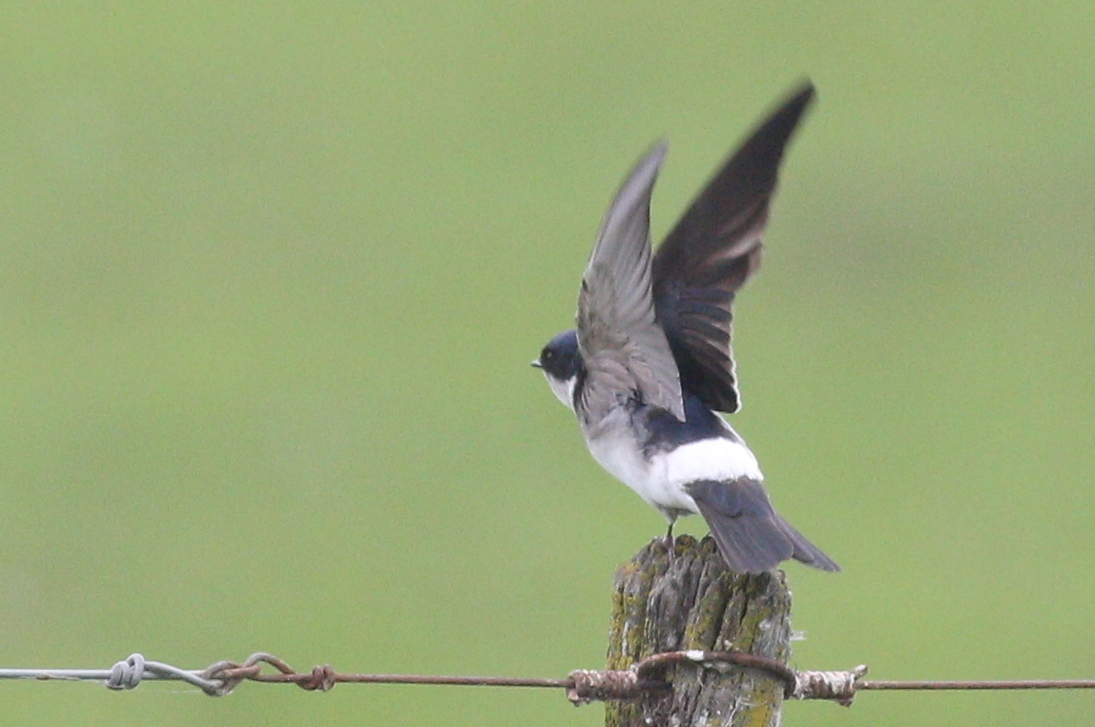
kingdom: Animalia
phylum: Chordata
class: Aves
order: Passeriformes
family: Hirundinidae
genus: Tachycineta
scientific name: Tachycineta leucorrhoa
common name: White-rumped swallow
